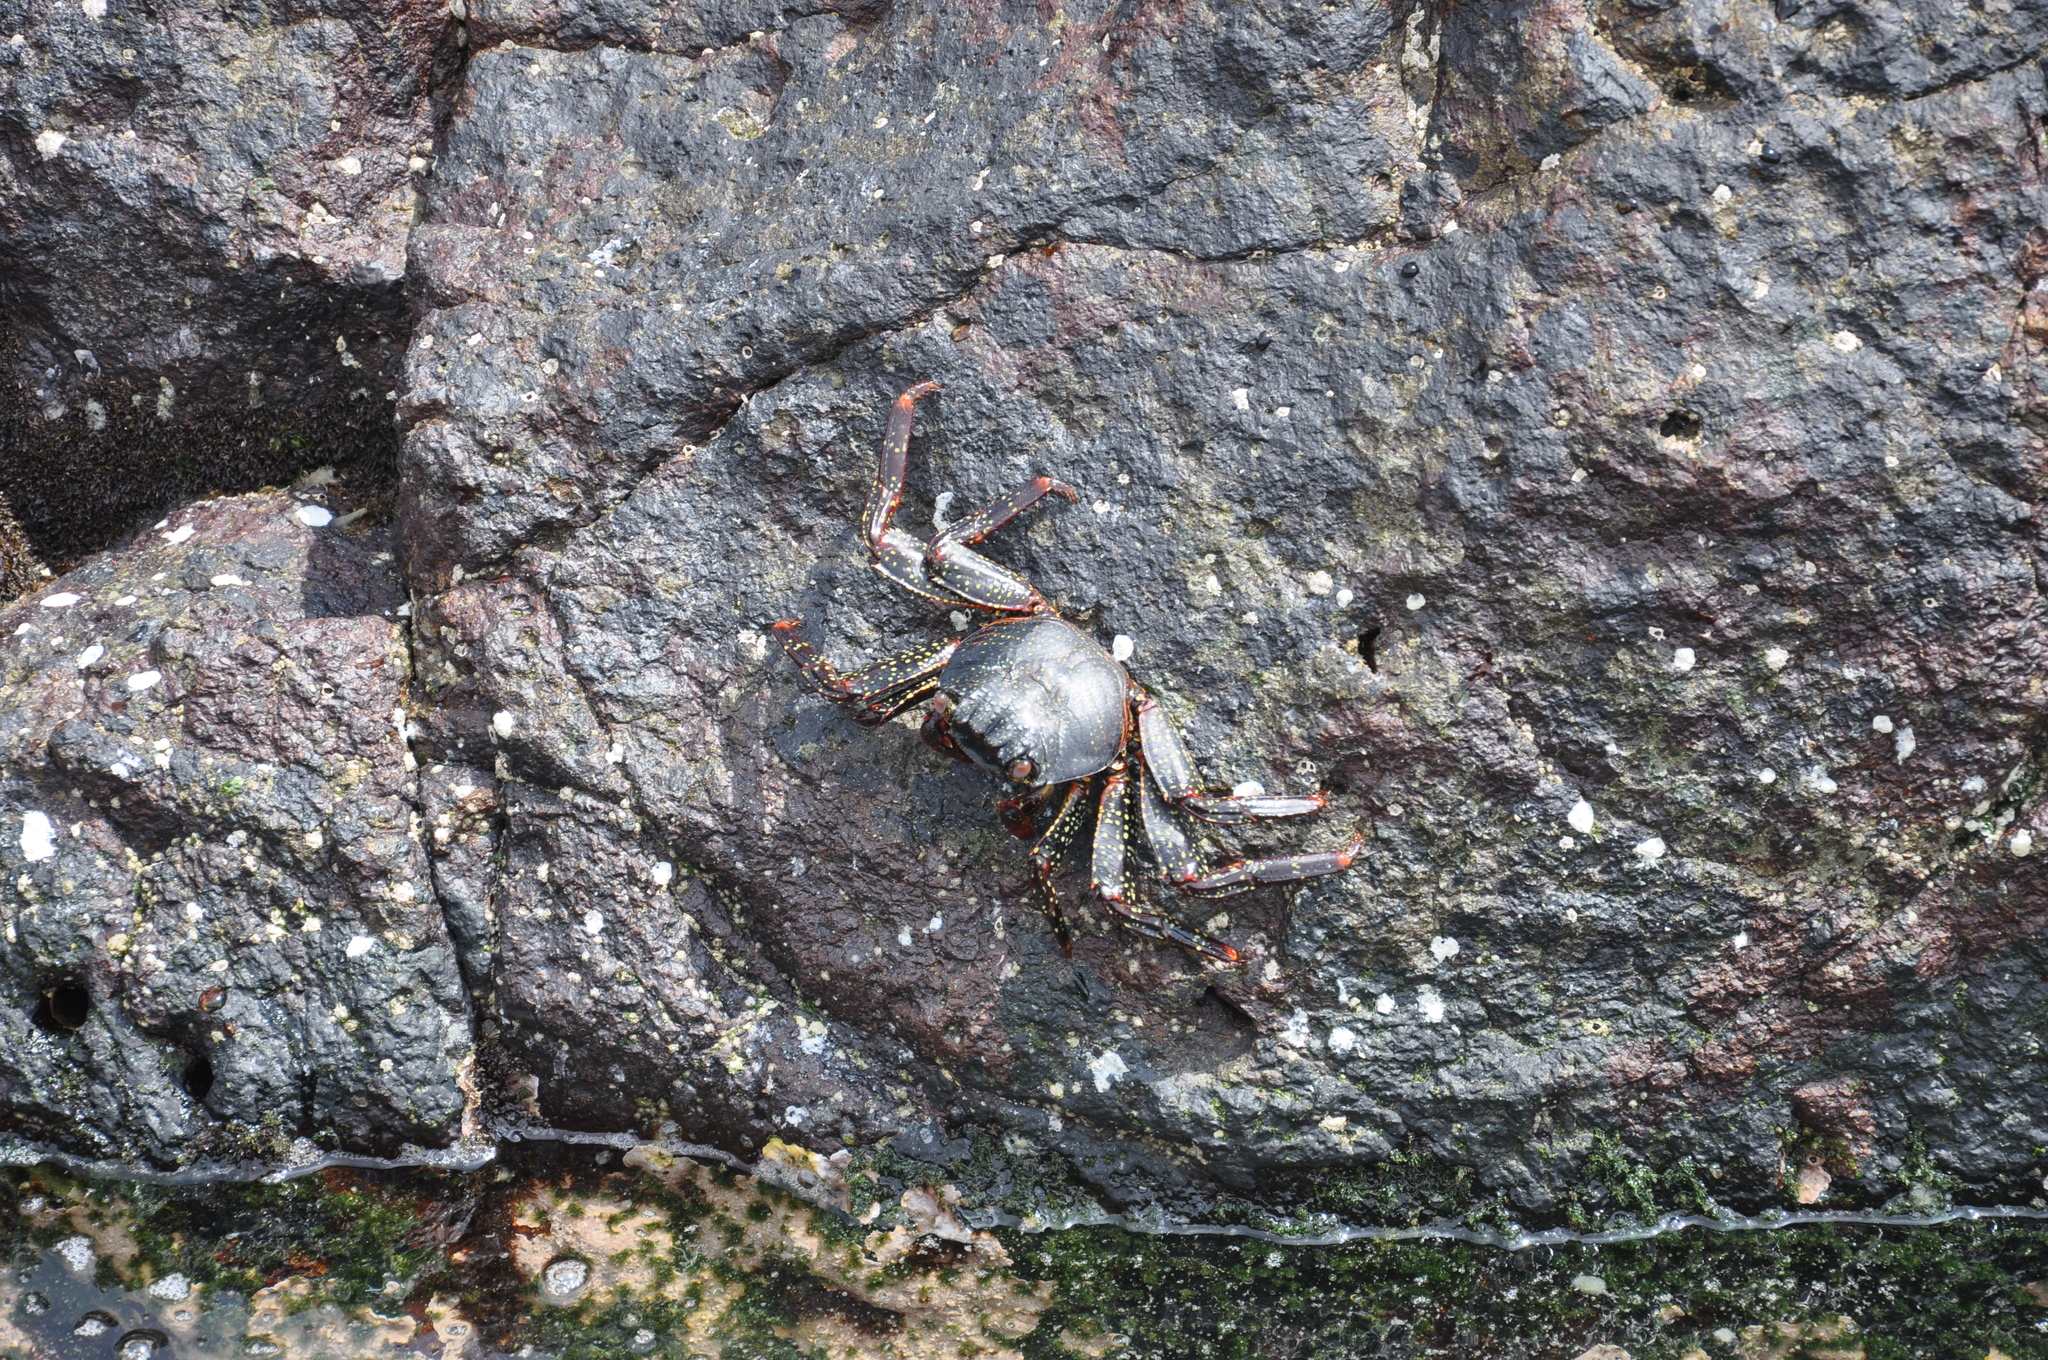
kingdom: Animalia
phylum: Arthropoda
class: Malacostraca
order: Decapoda
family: Grapsidae
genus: Leptograpsus
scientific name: Leptograpsus variegatus
